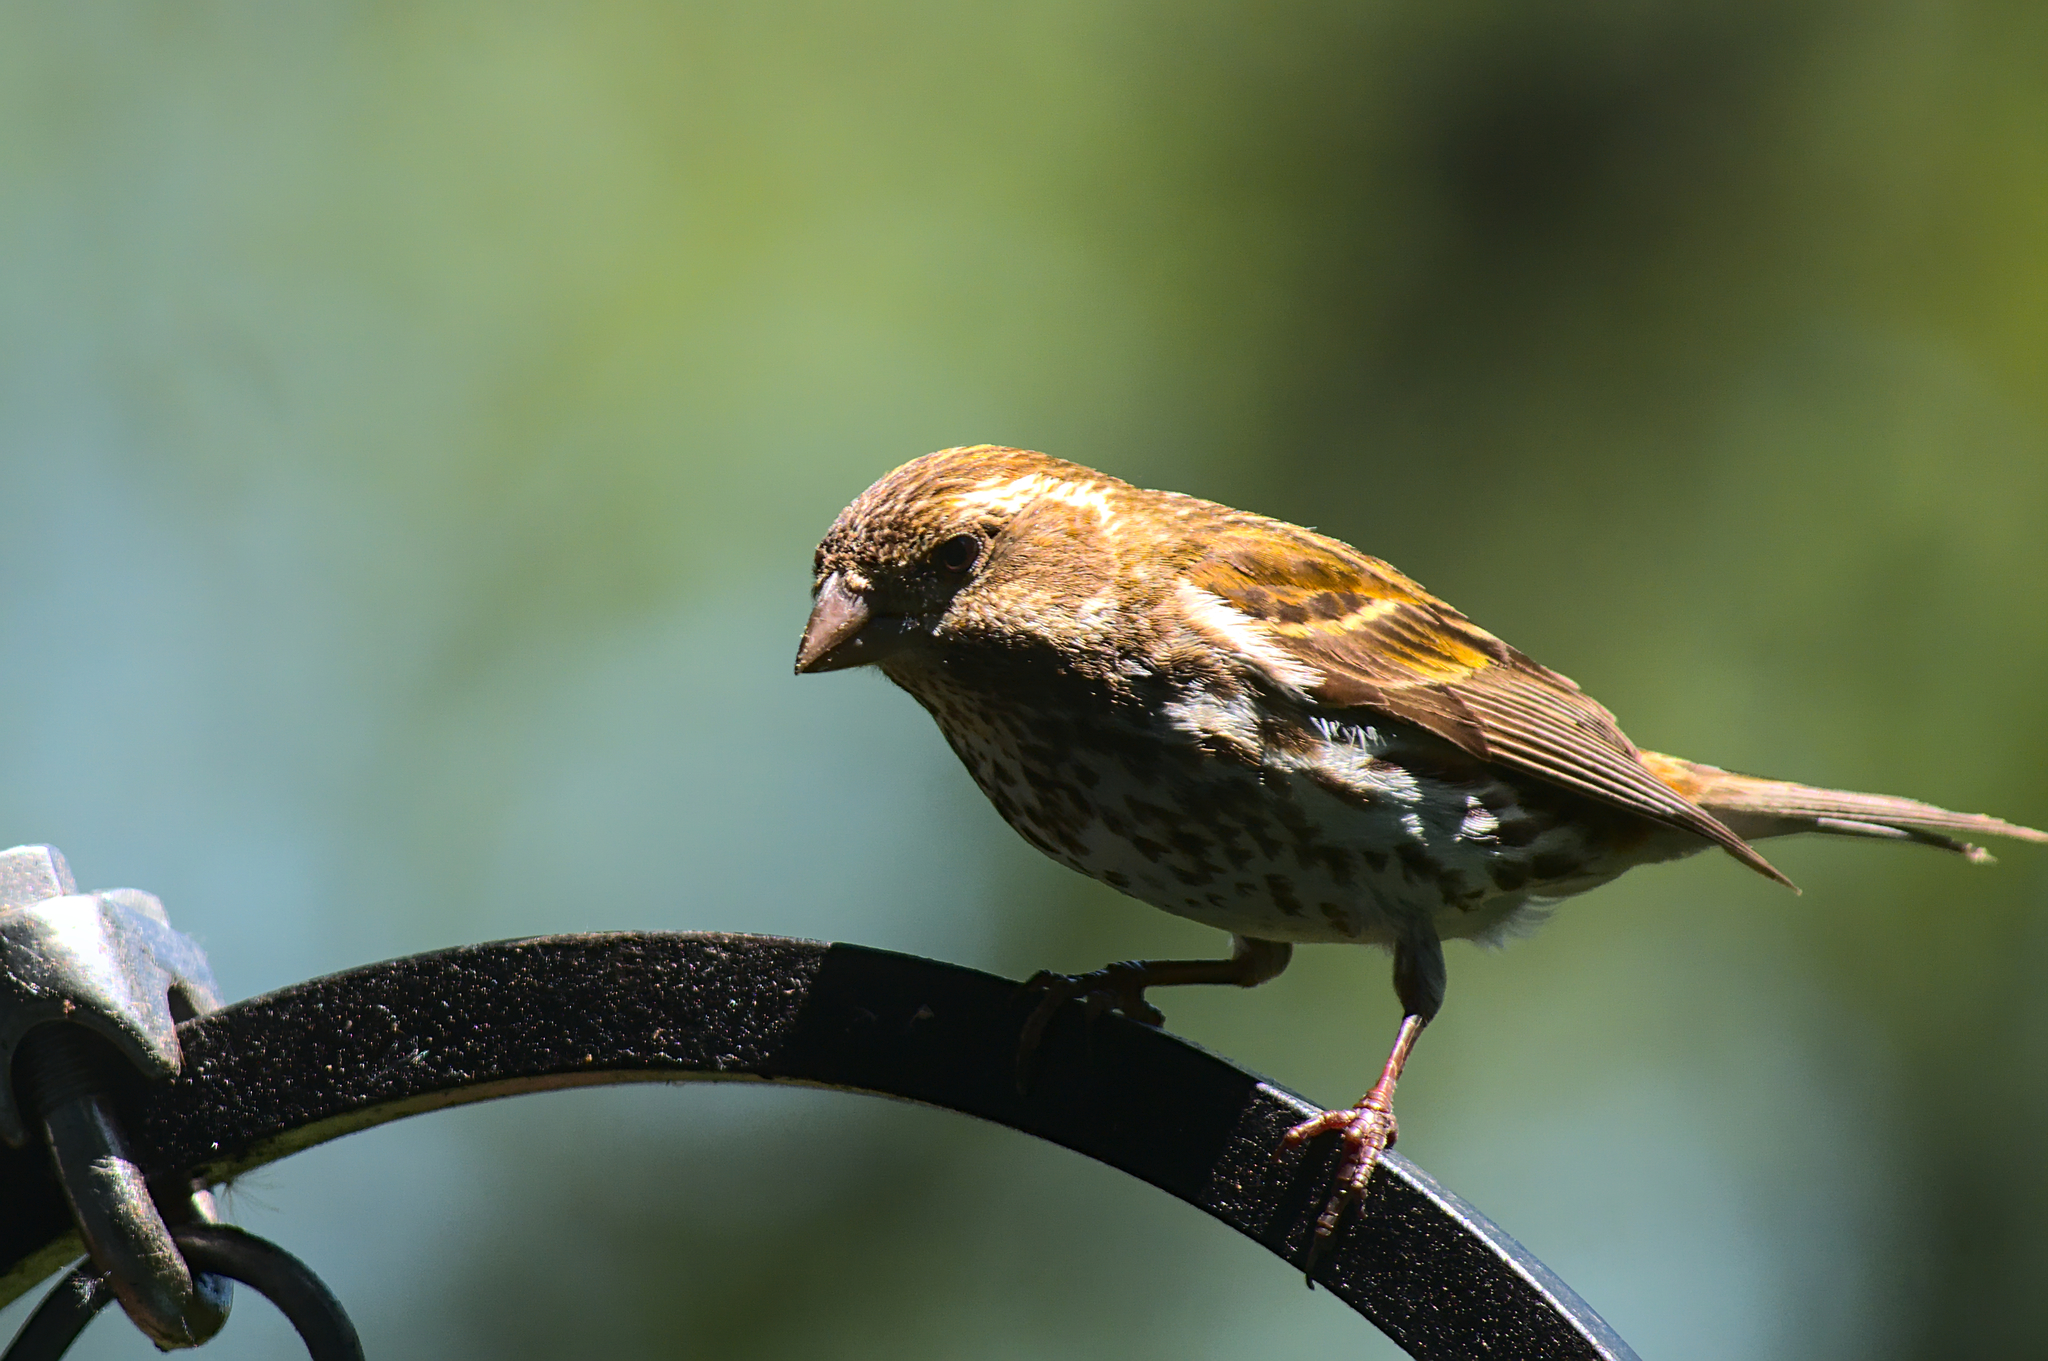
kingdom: Animalia
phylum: Chordata
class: Aves
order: Passeriformes
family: Fringillidae
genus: Haemorhous
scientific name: Haemorhous purpureus
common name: Purple finch
